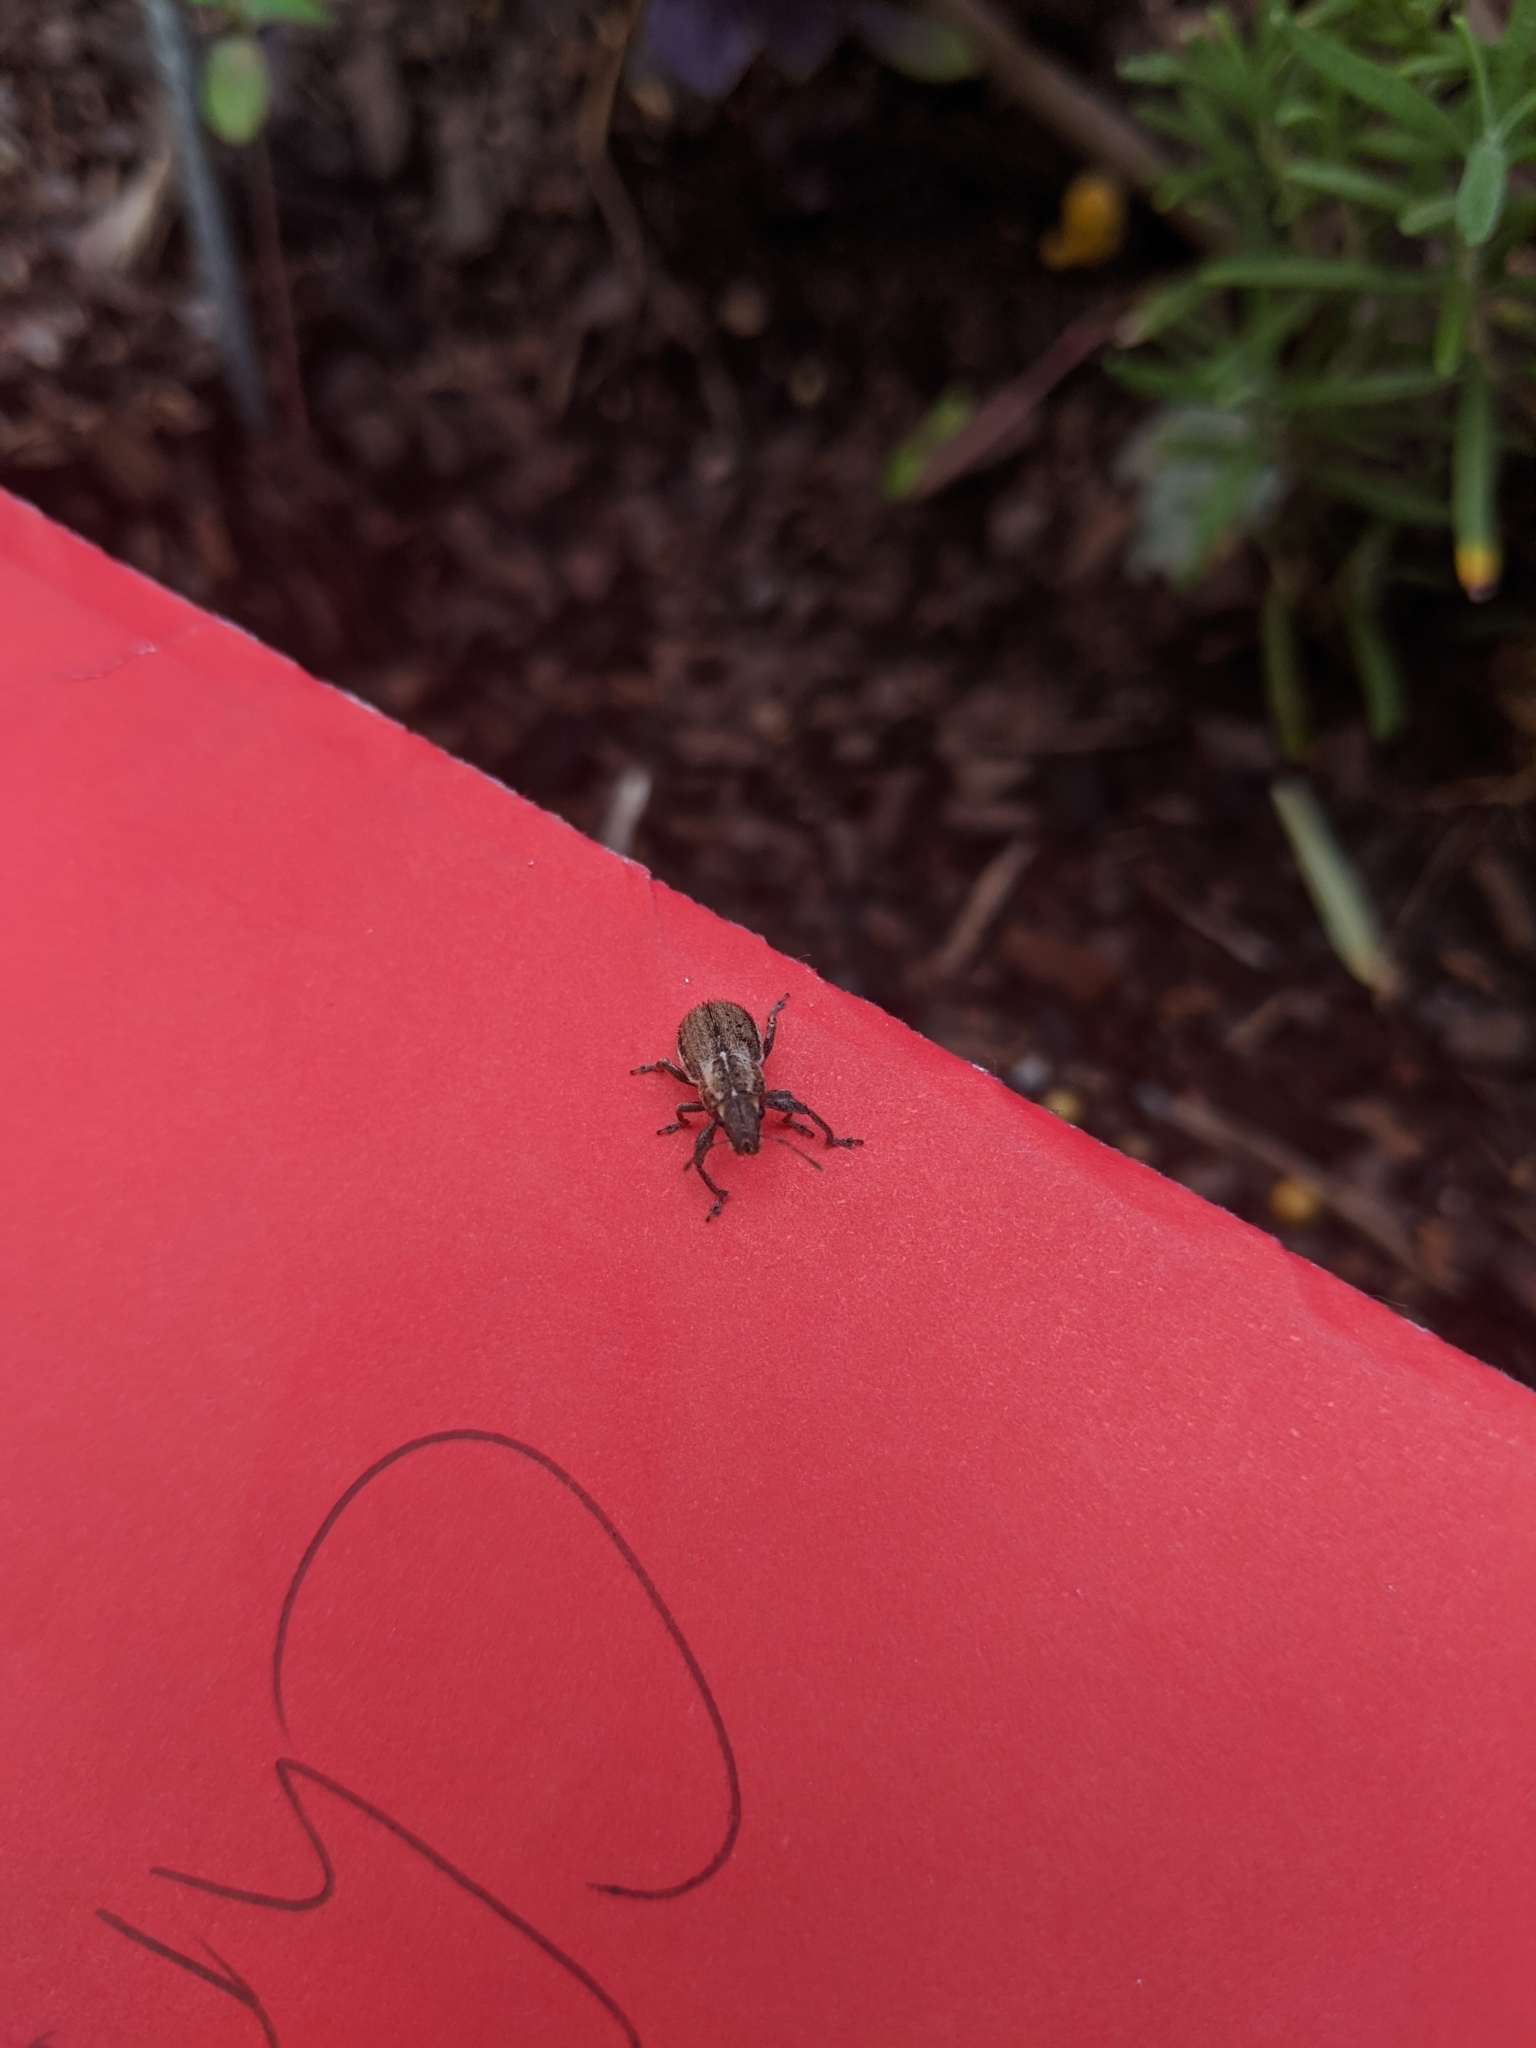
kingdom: Animalia
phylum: Arthropoda
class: Insecta
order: Coleoptera
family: Curculionidae
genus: Naupactus
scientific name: Naupactus peregrinus
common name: Whitefringed beetle
